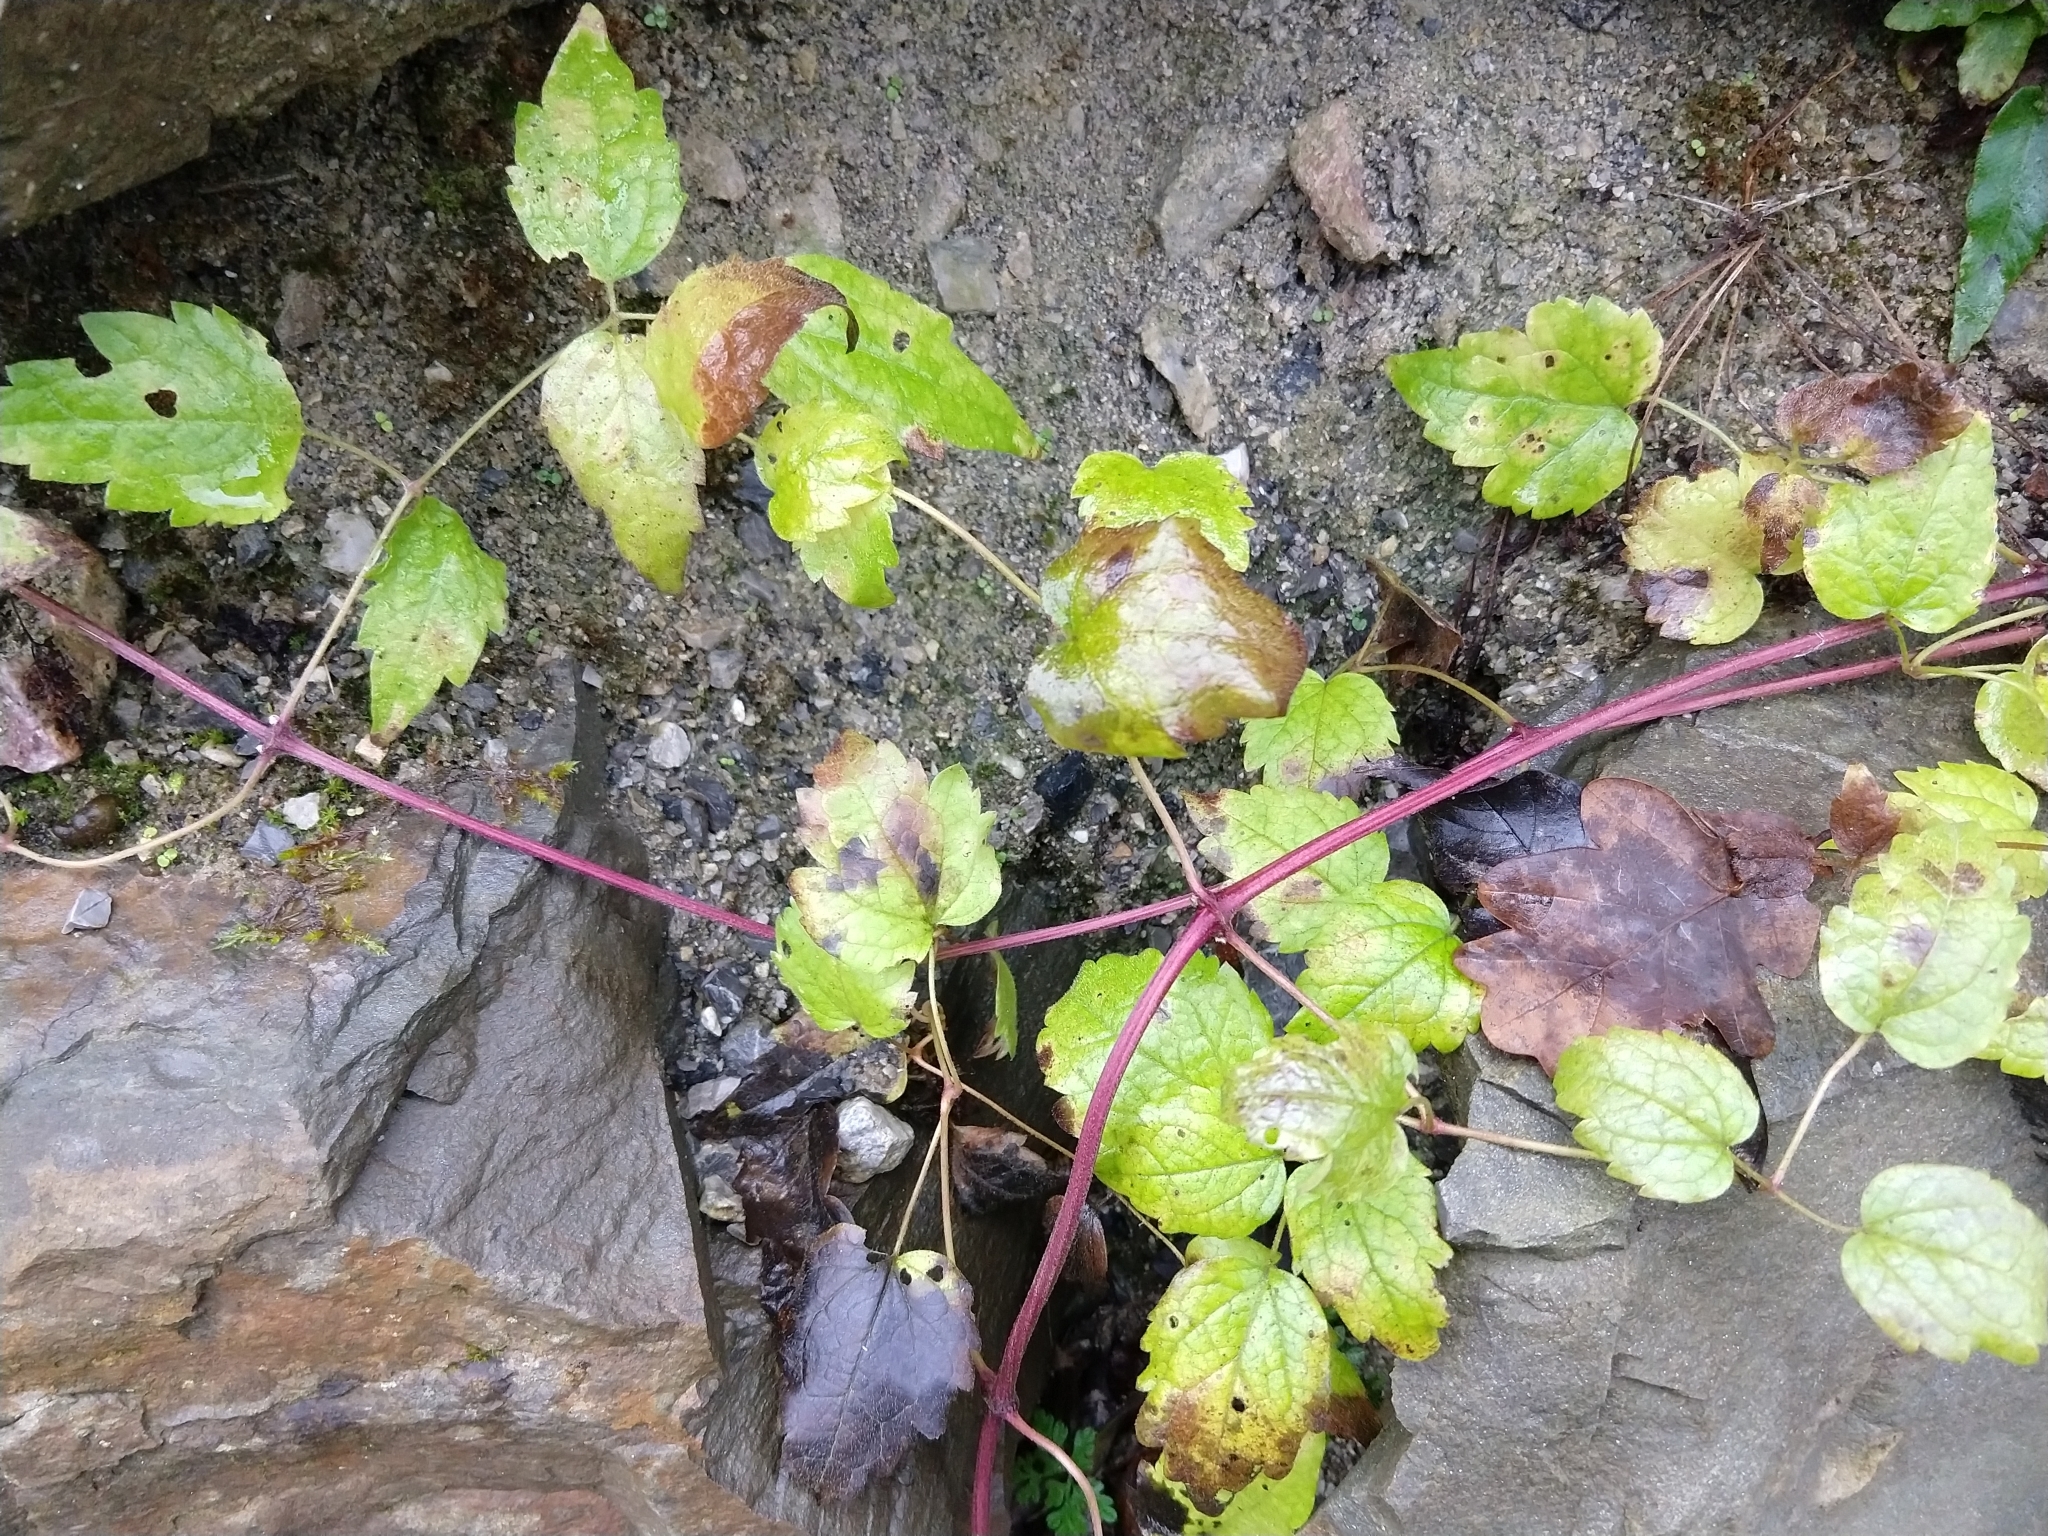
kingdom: Plantae
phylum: Tracheophyta
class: Magnoliopsida
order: Ranunculales
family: Ranunculaceae
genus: Clematis
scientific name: Clematis vitalba
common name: Evergreen clematis
